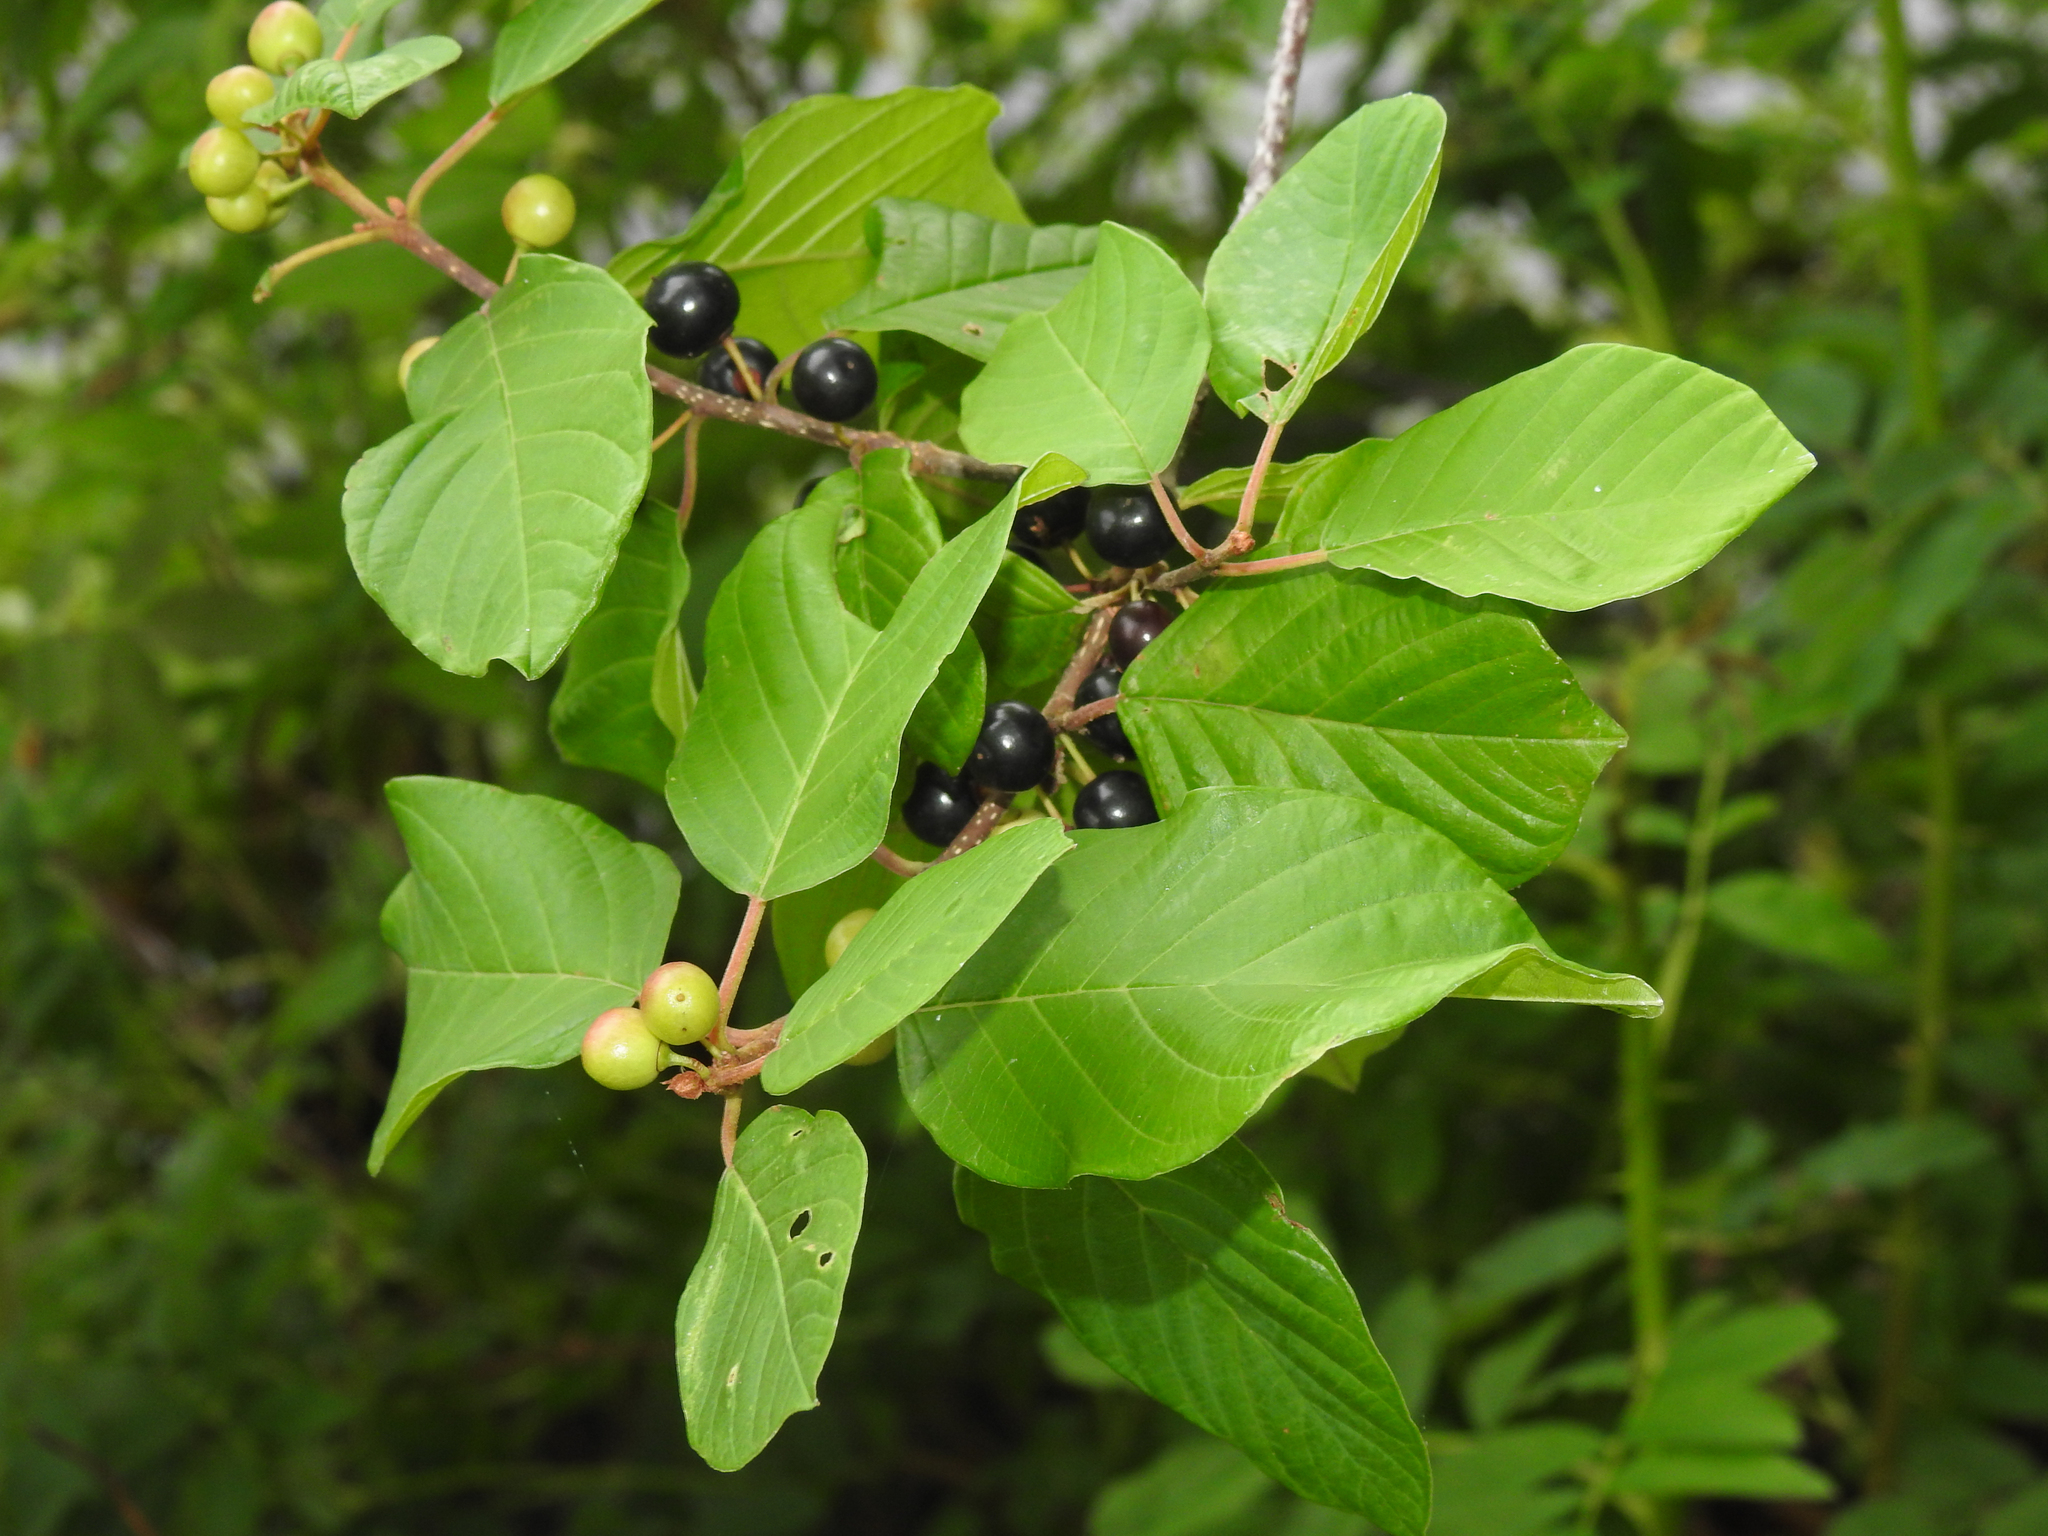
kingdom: Plantae
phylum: Tracheophyta
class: Magnoliopsida
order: Rosales
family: Rhamnaceae
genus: Frangula
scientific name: Frangula alnus
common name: Alder buckthorn
